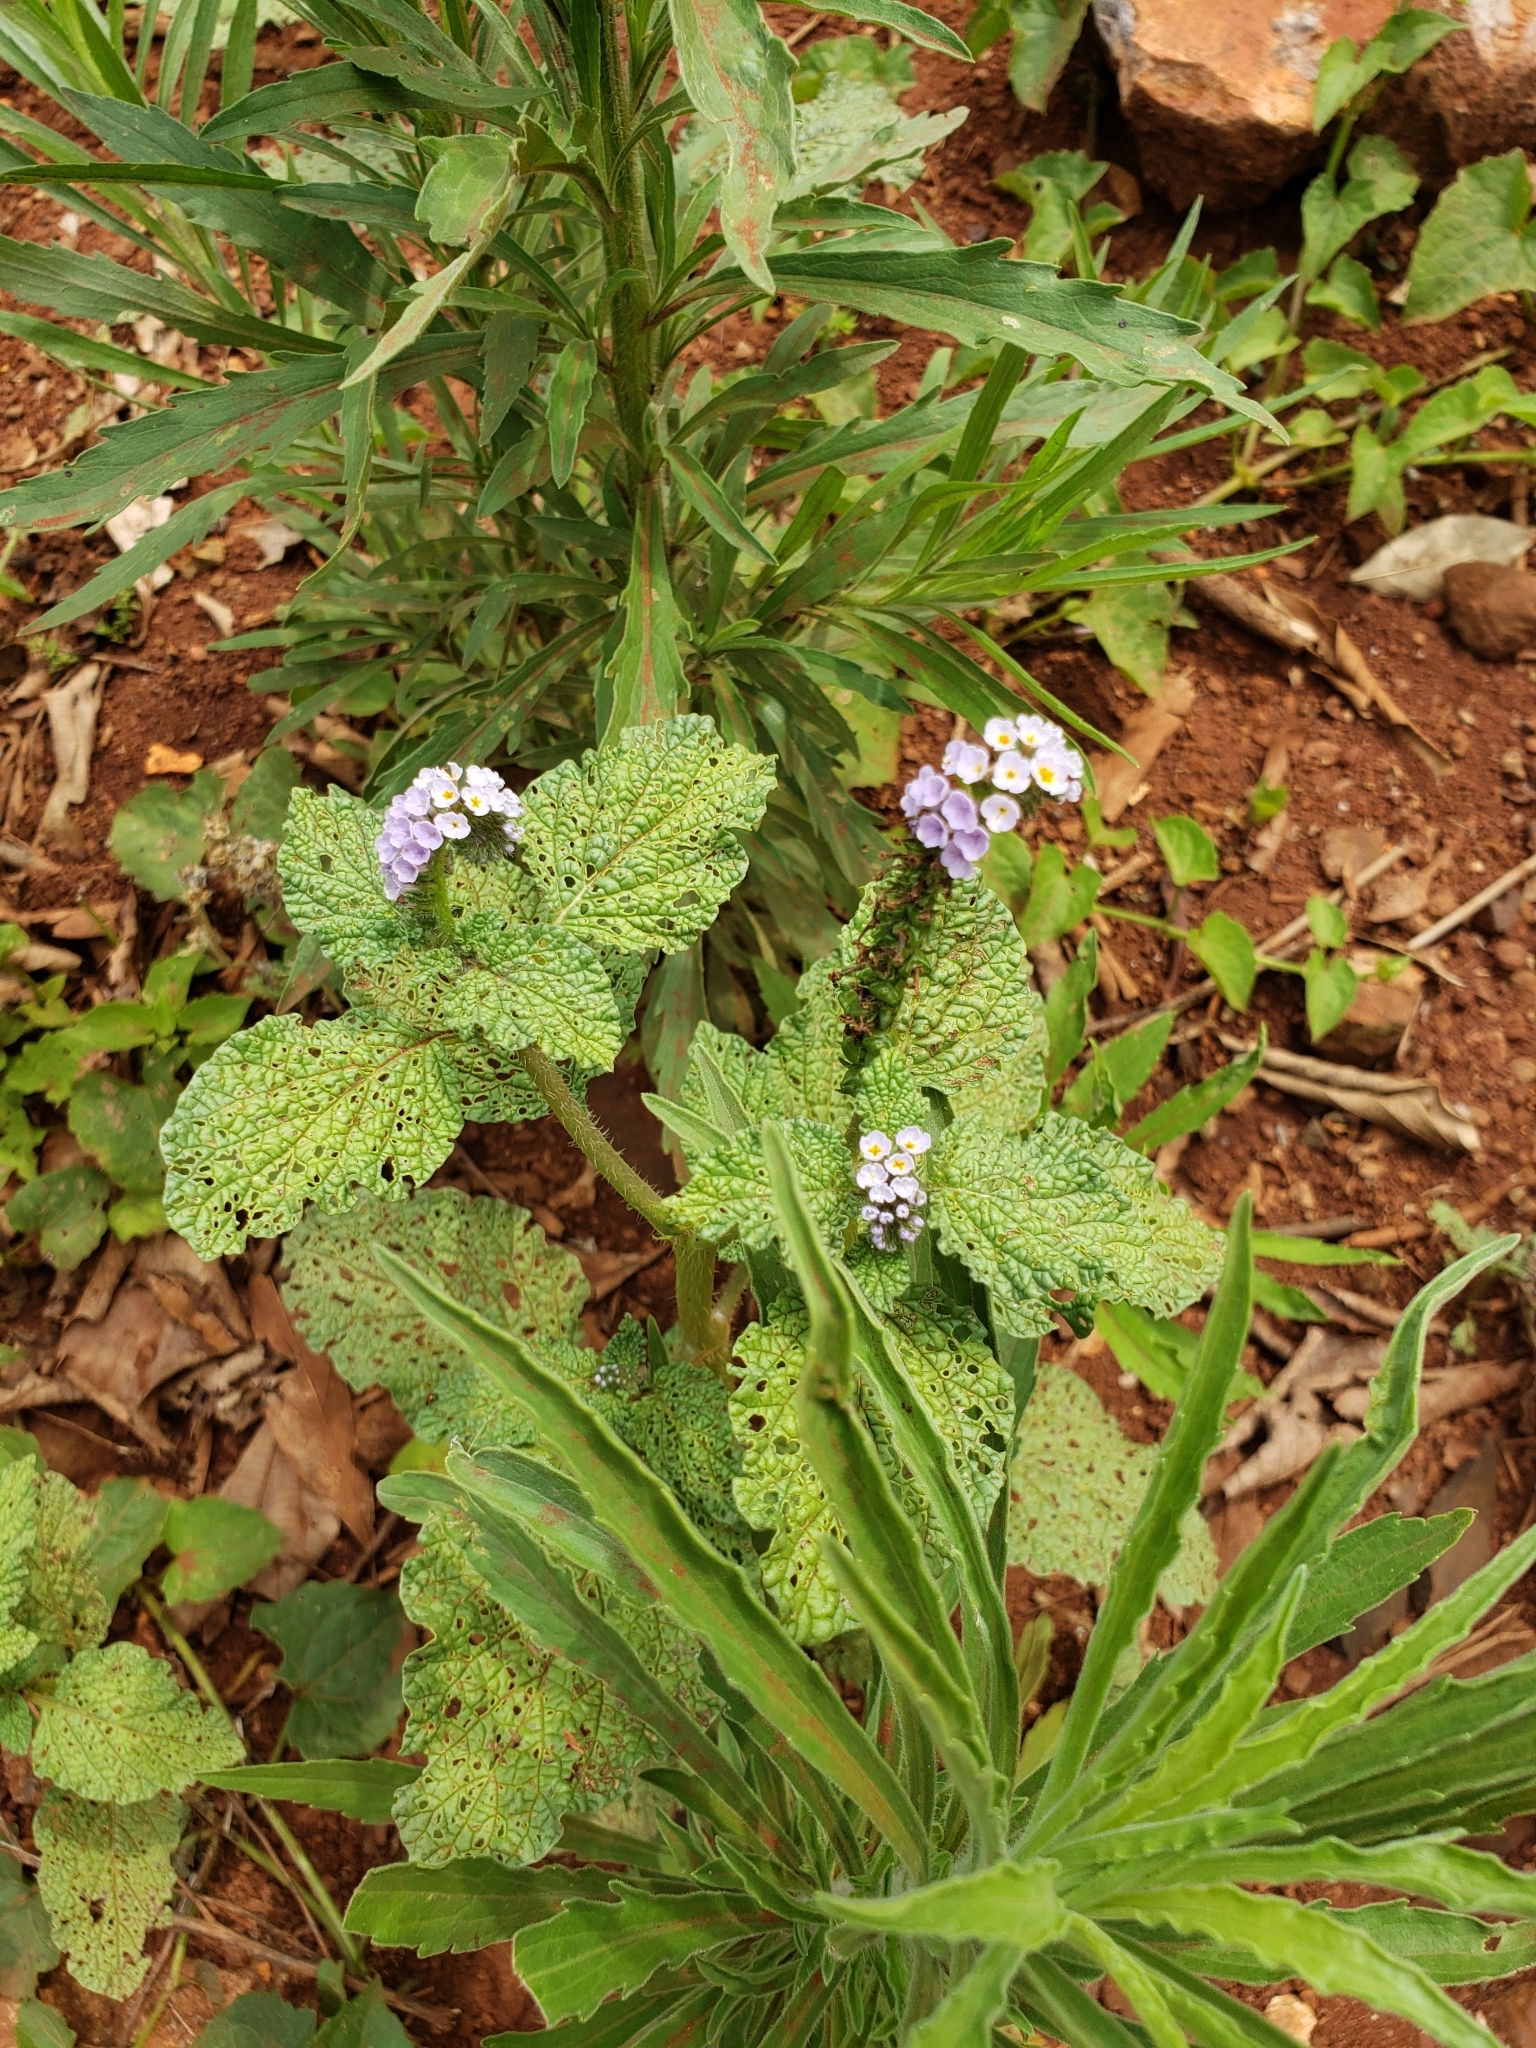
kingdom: Plantae
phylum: Tracheophyta
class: Magnoliopsida
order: Boraginales
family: Heliotropiaceae
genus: Heliotropium
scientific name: Heliotropium indicum
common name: Indian heliotrope
